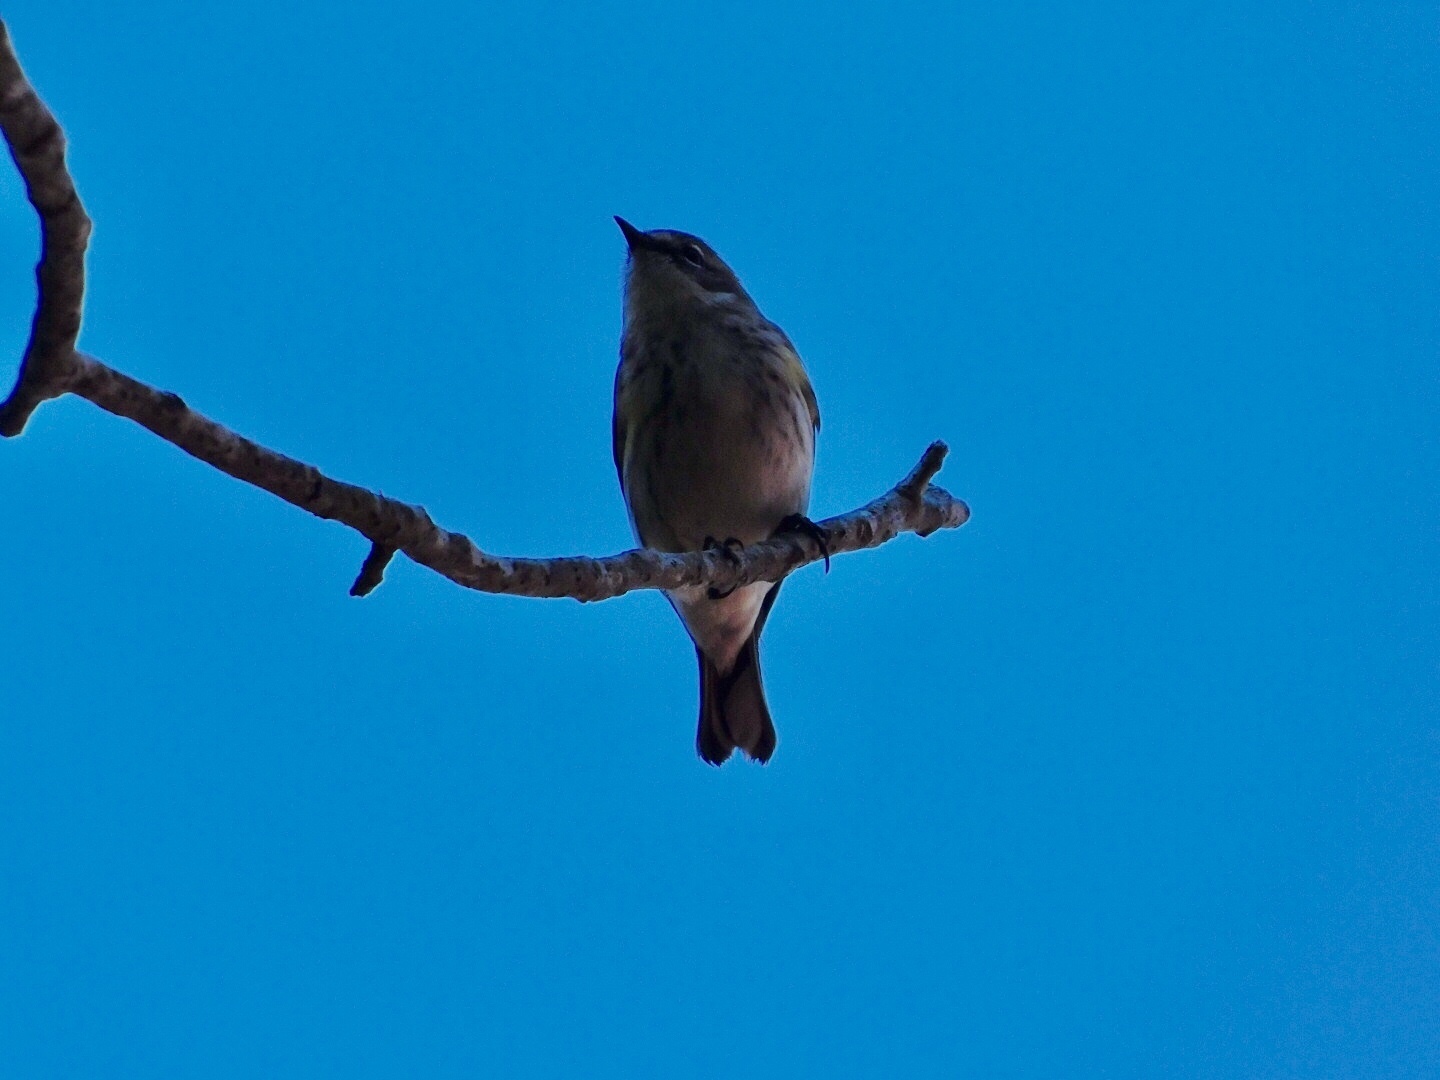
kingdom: Animalia
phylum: Chordata
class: Aves
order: Passeriformes
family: Parulidae
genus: Setophaga
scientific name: Setophaga coronata
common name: Myrtle warbler
